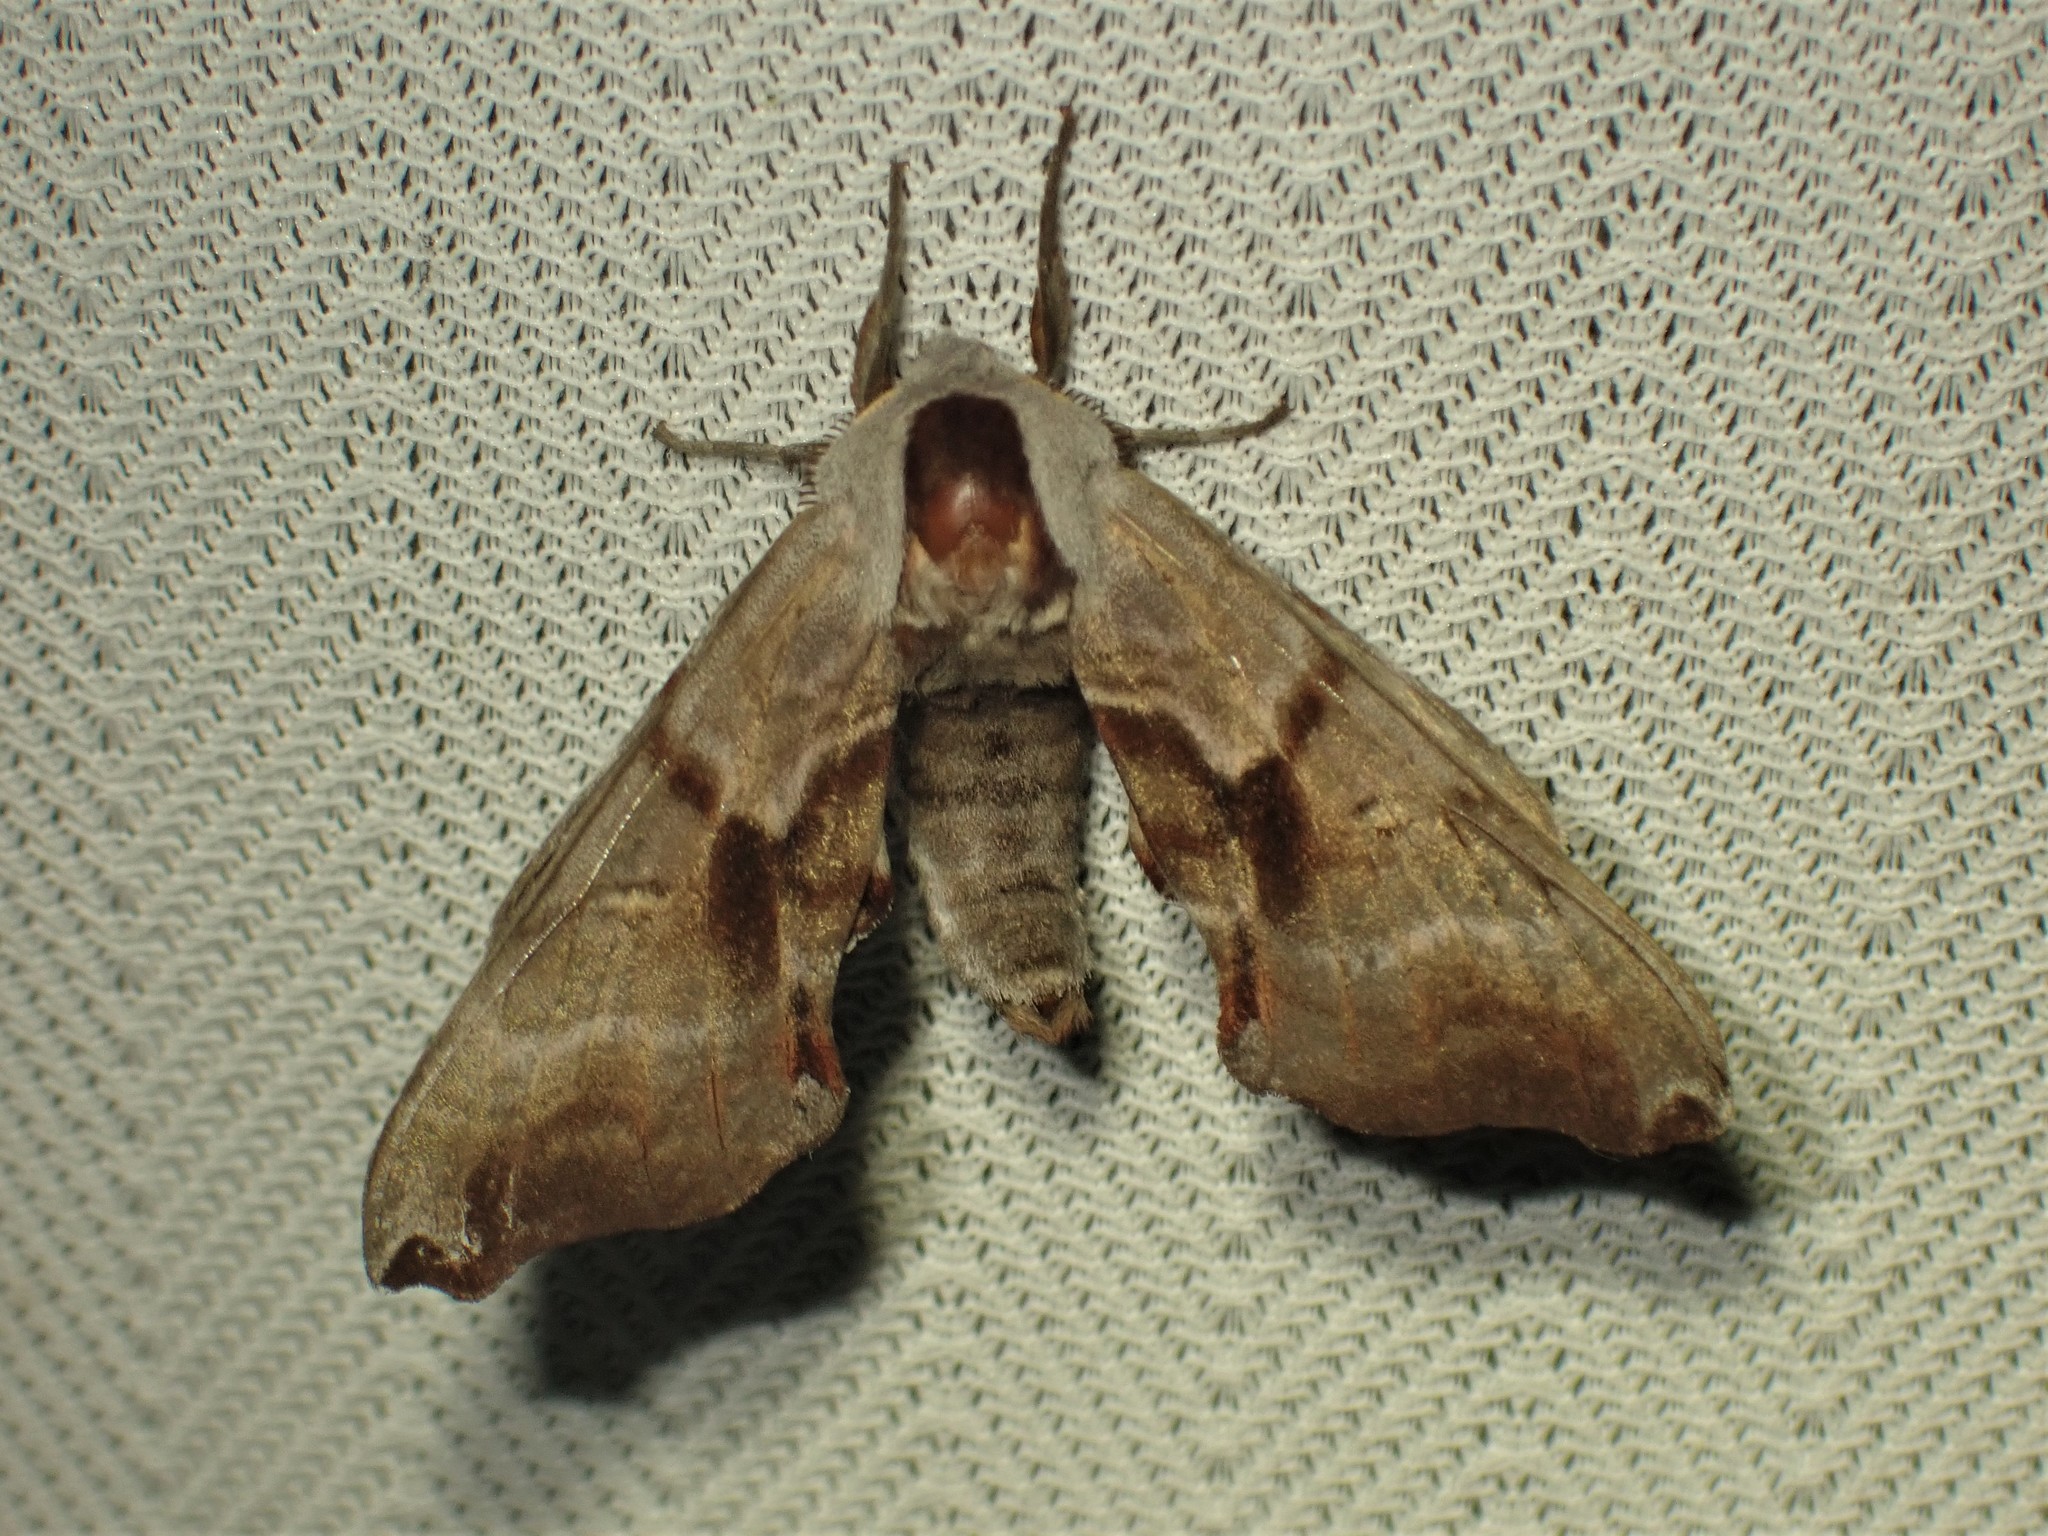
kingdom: Animalia
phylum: Arthropoda
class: Insecta
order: Lepidoptera
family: Sphingidae
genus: Smerinthus
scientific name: Smerinthus jamaicensis
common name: Twin spotted sphinx
